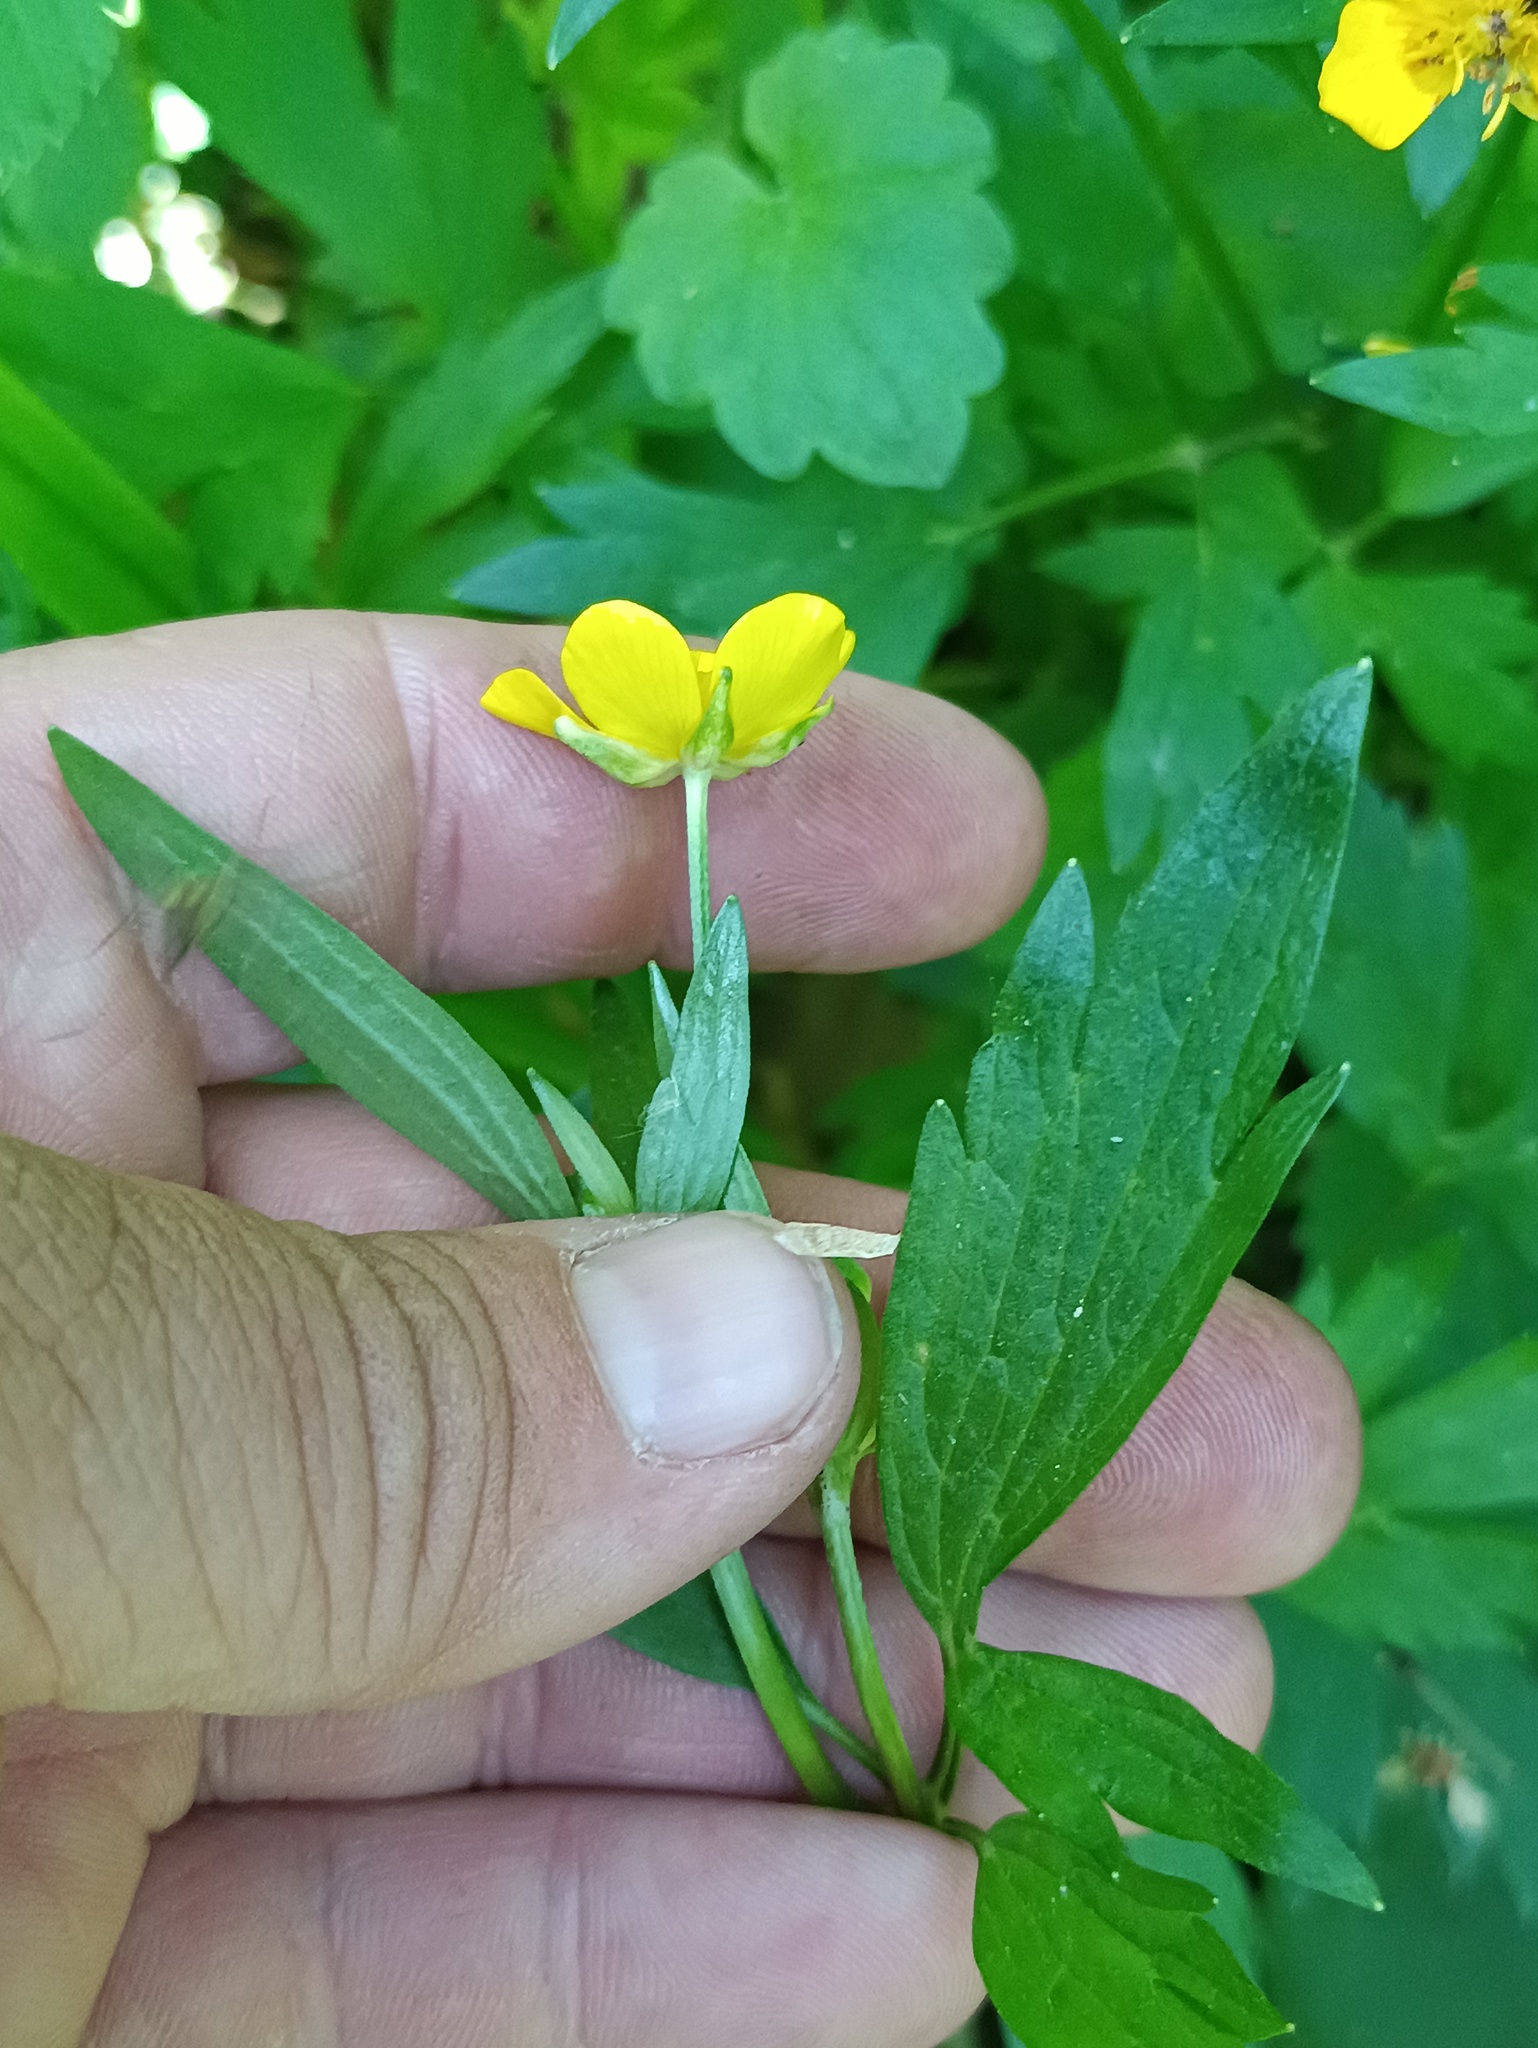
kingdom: Plantae
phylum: Tracheophyta
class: Magnoliopsida
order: Ranunculales
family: Ranunculaceae
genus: Ranunculus
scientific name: Ranunculus repens
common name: Creeping buttercup
